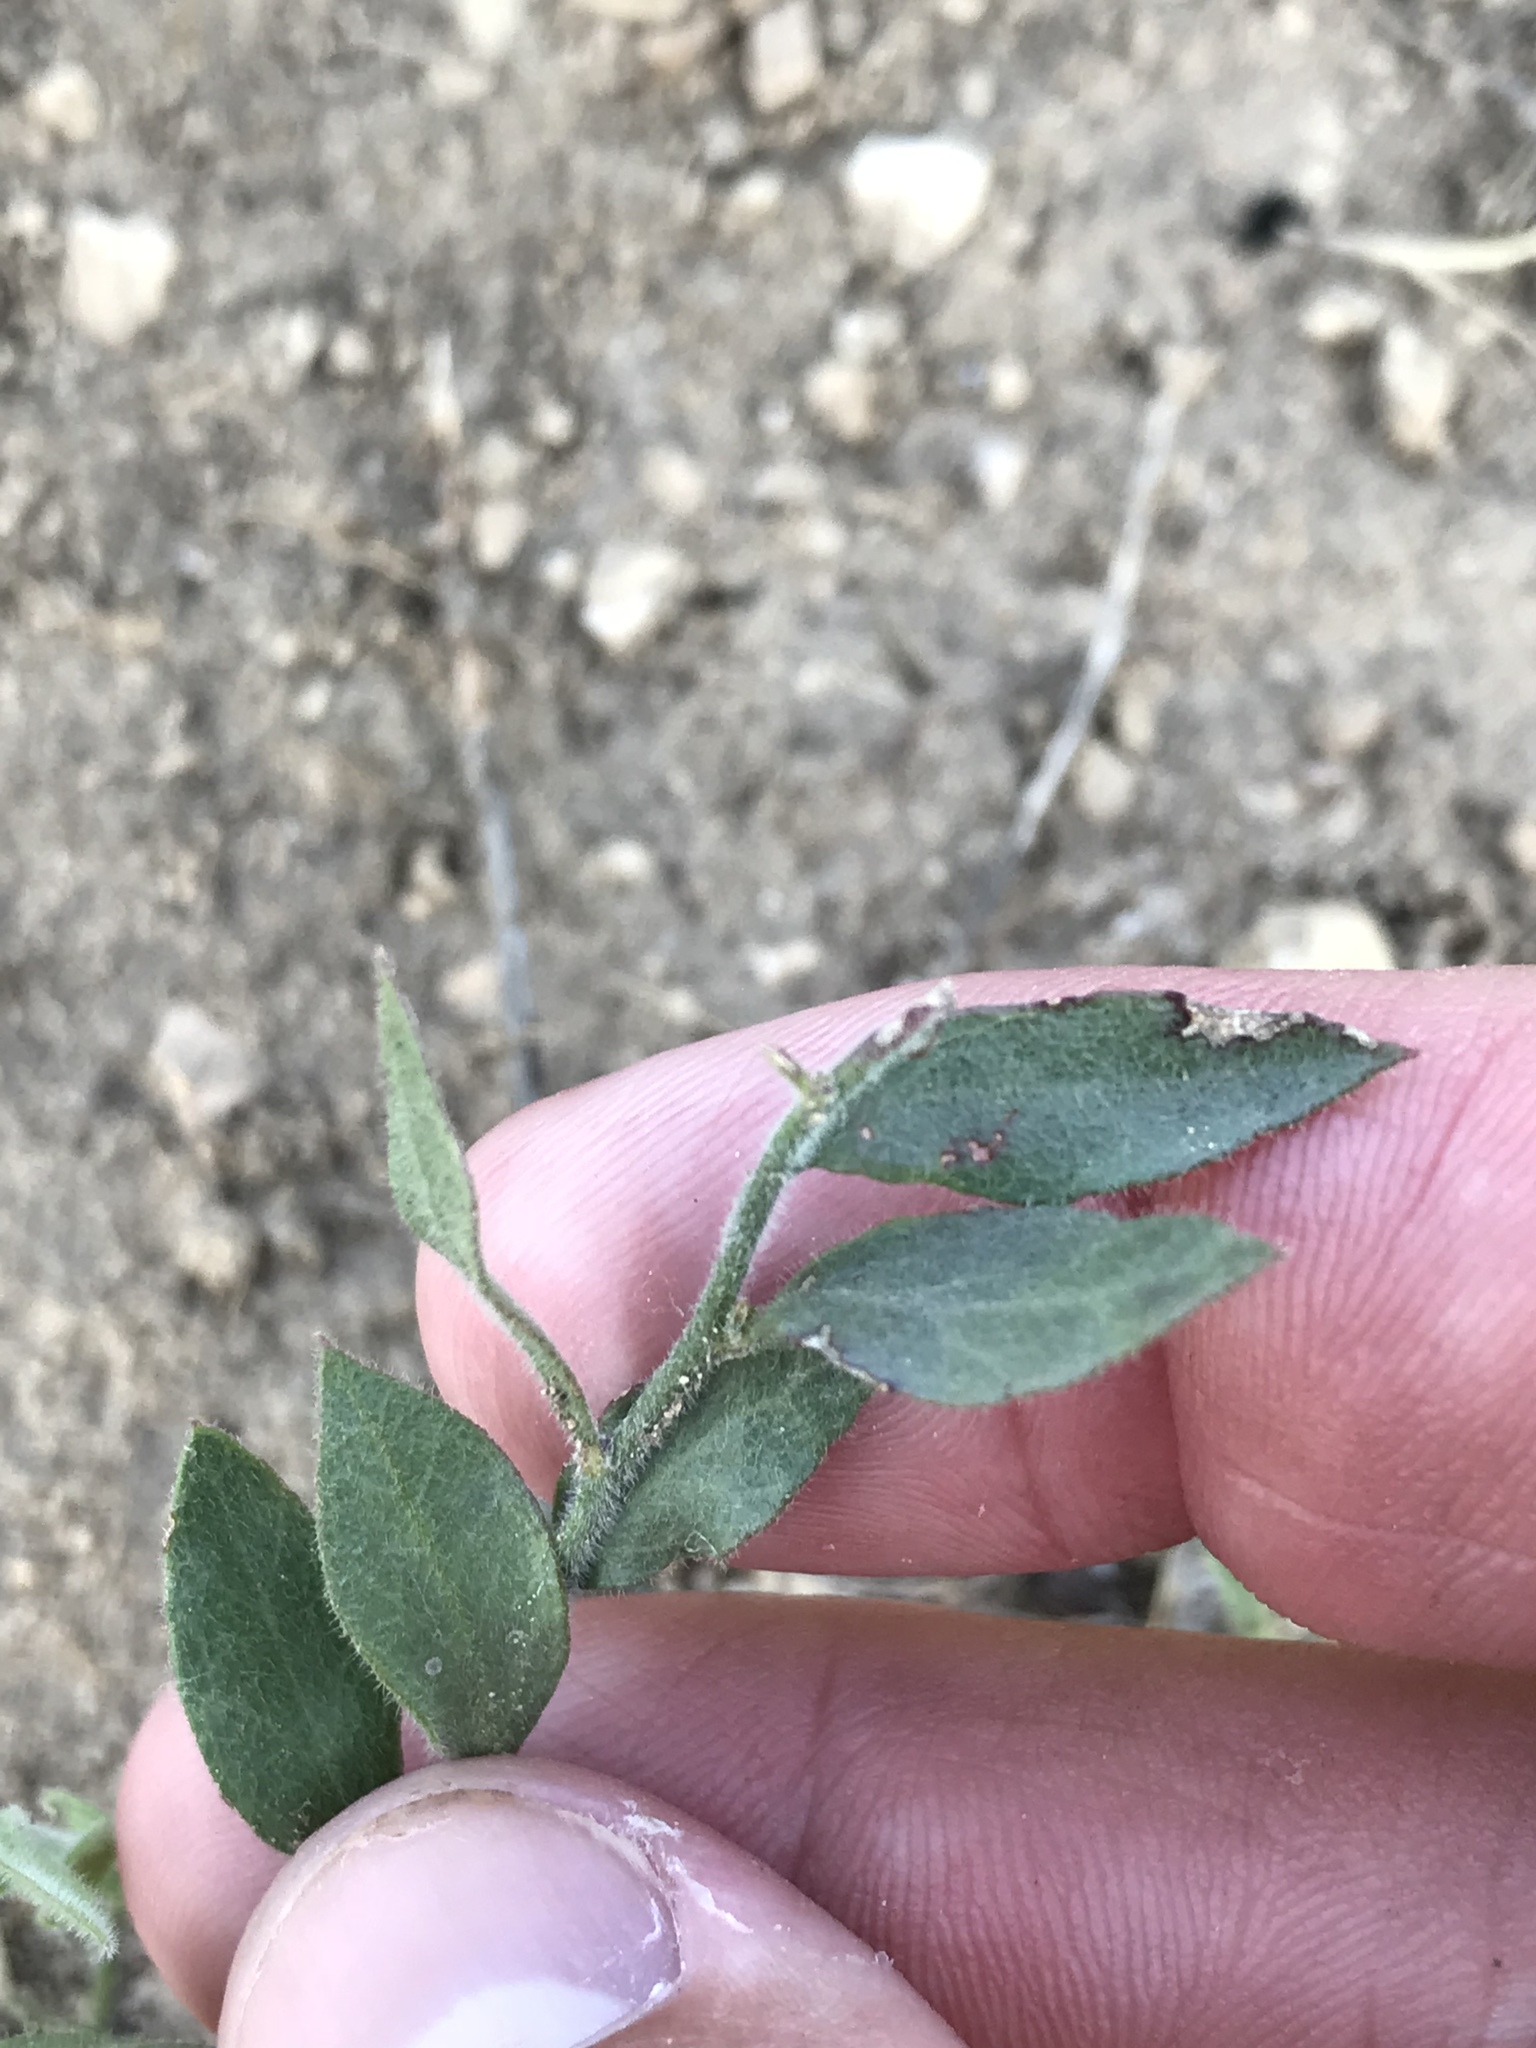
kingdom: Plantae
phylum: Tracheophyta
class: Magnoliopsida
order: Fabales
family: Polygalaceae
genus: Rhinotropis
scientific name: Rhinotropis lindheimeri
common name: Shrubby milkwort
